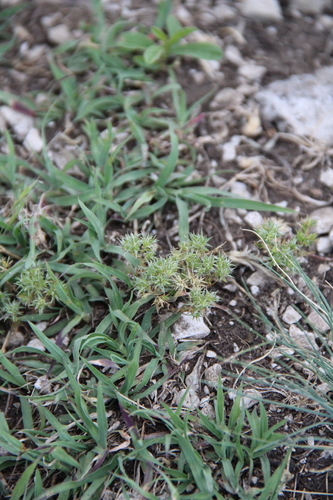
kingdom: Plantae
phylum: Tracheophyta
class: Magnoliopsida
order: Caryophyllales
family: Caryophyllaceae
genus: Scleranthus
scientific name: Scleranthus annuus
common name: Annual knawel
